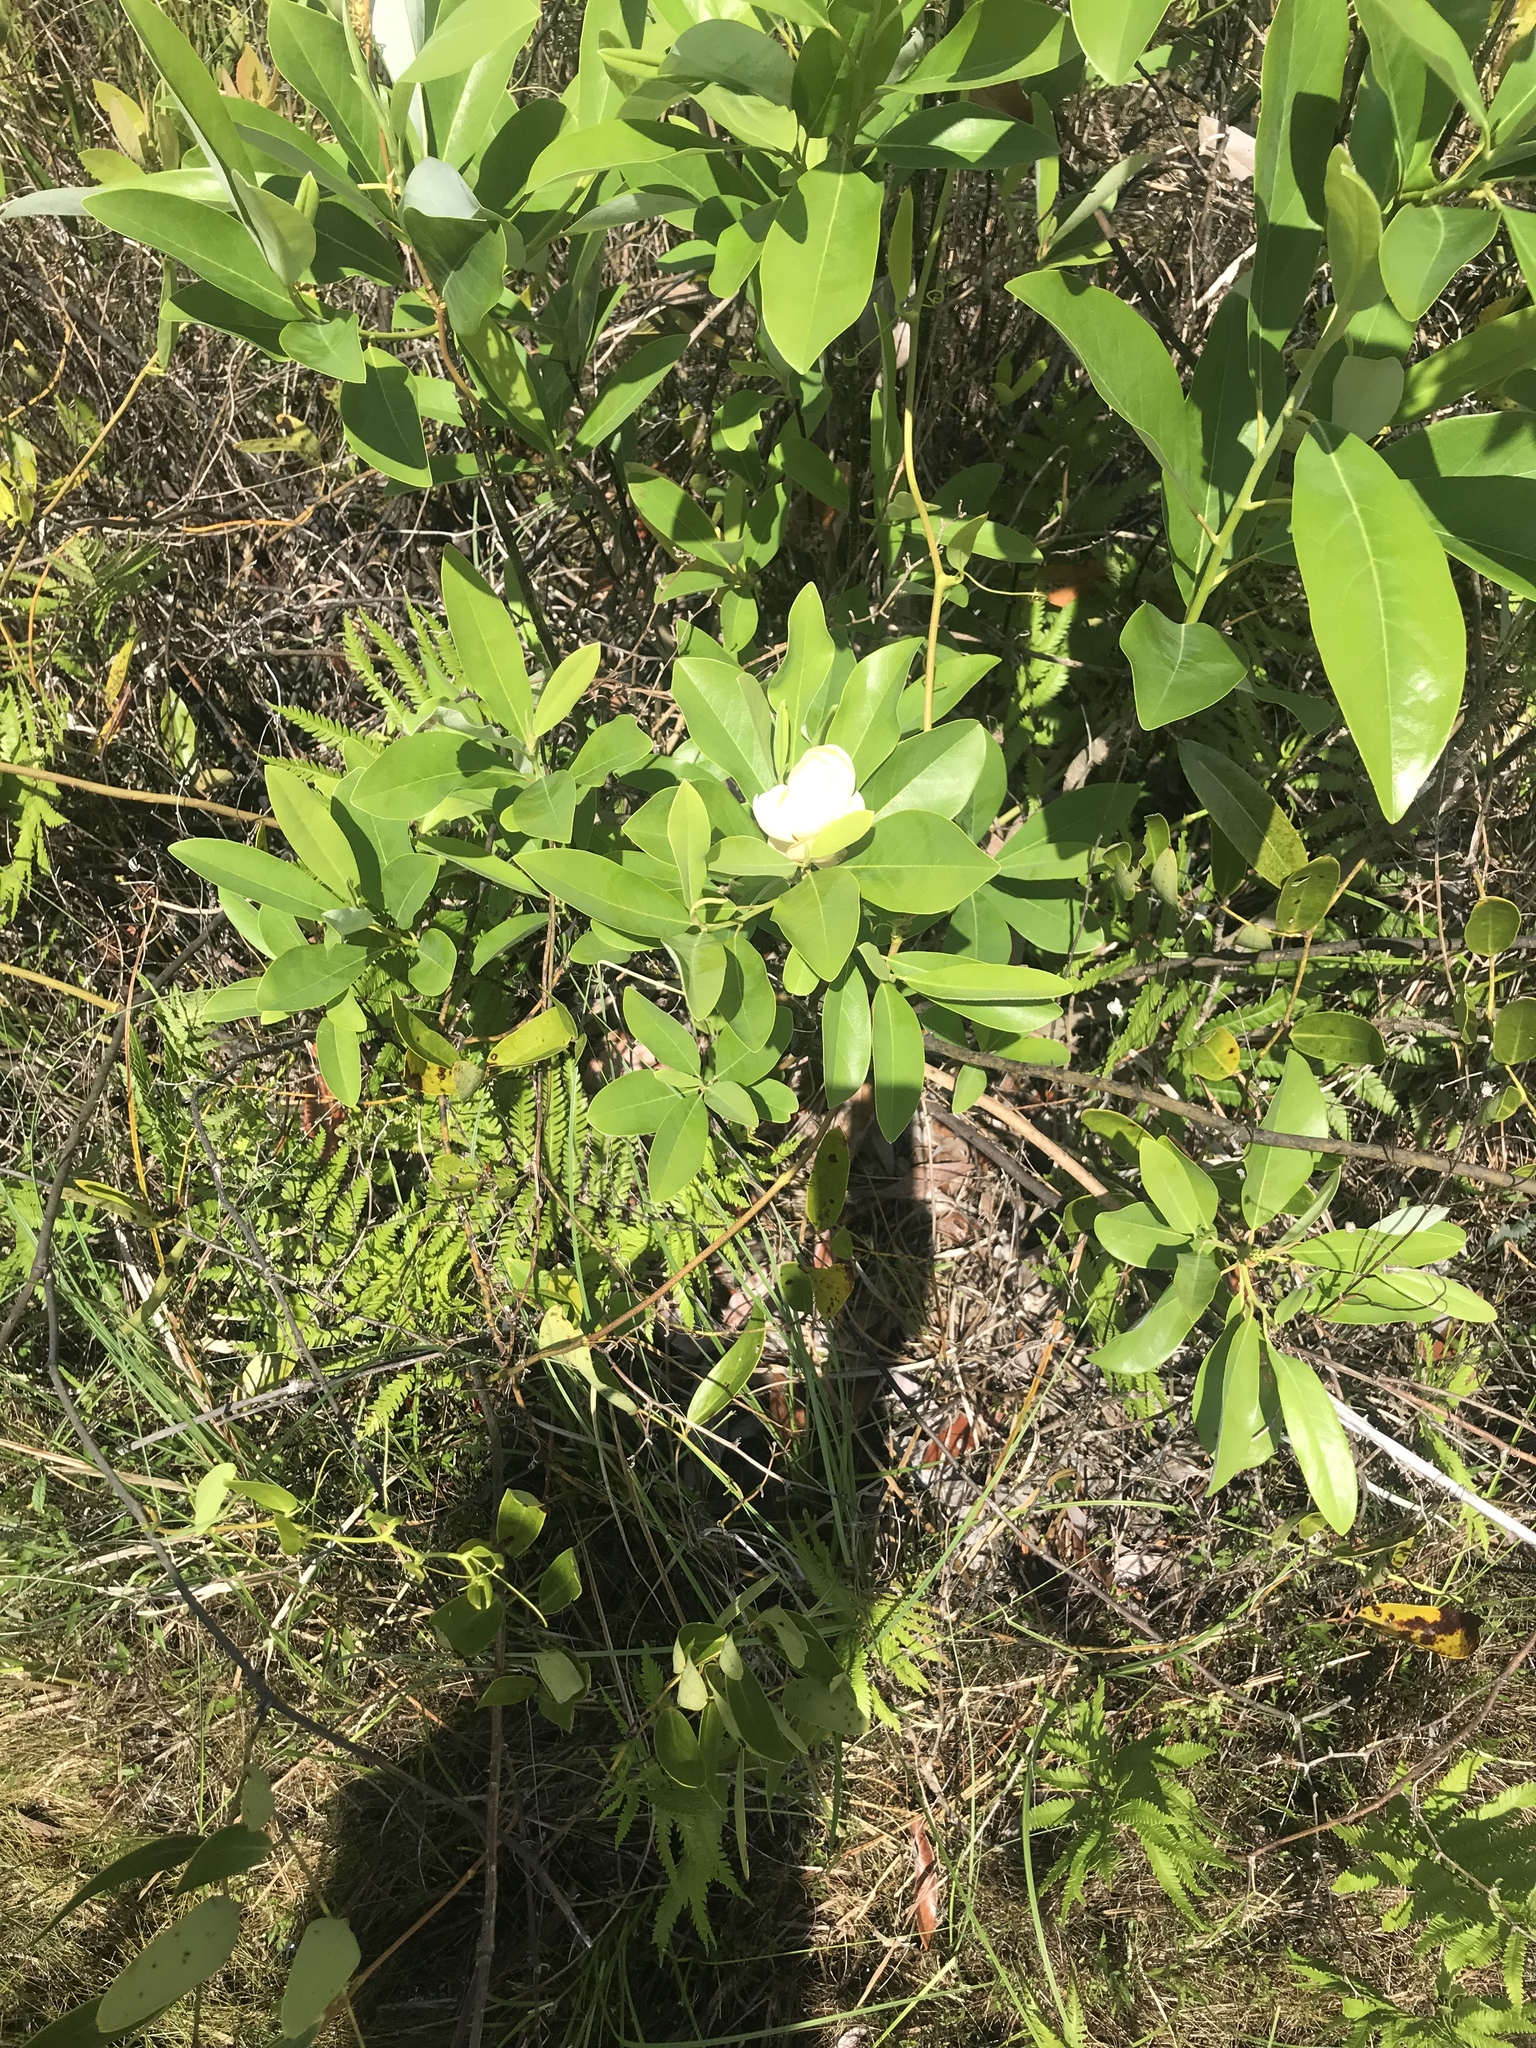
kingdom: Plantae
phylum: Tracheophyta
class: Magnoliopsida
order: Magnoliales
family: Magnoliaceae
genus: Magnolia
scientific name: Magnolia virginiana
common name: Swamp bay
